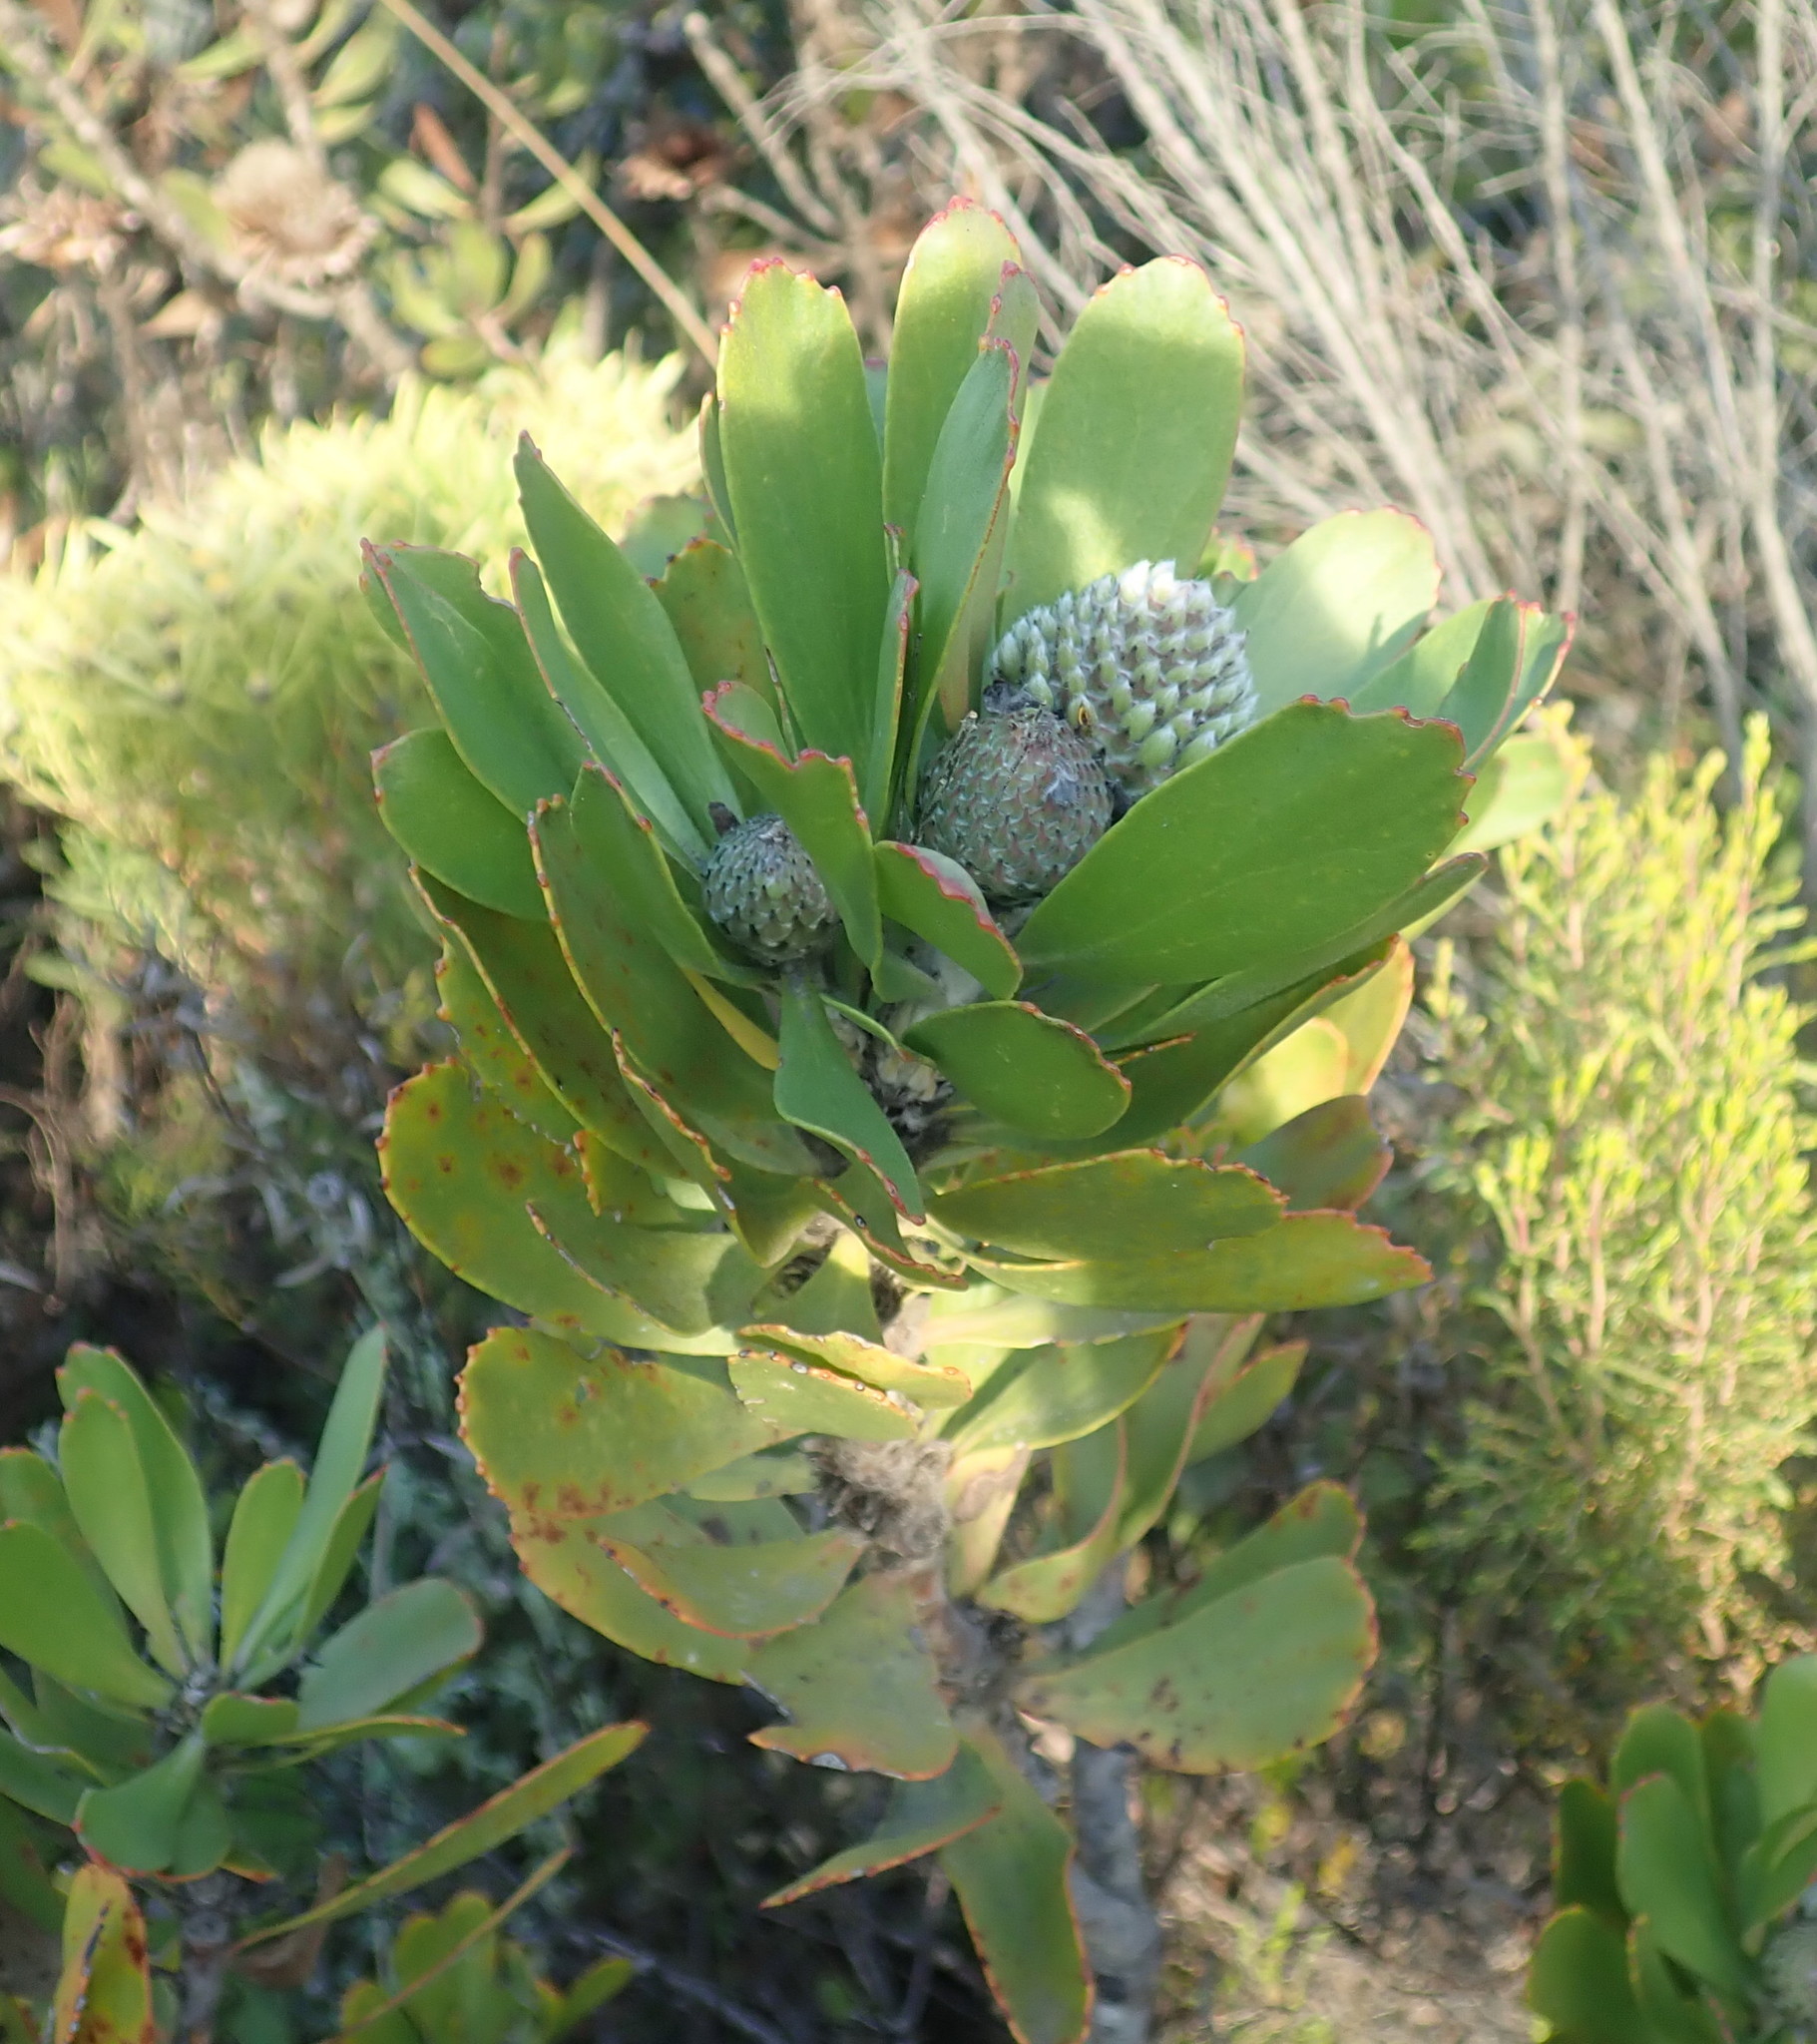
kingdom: Plantae
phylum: Tracheophyta
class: Magnoliopsida
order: Proteales
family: Proteaceae
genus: Leucospermum
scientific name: Leucospermum praecox
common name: Mossel bay pincushion
